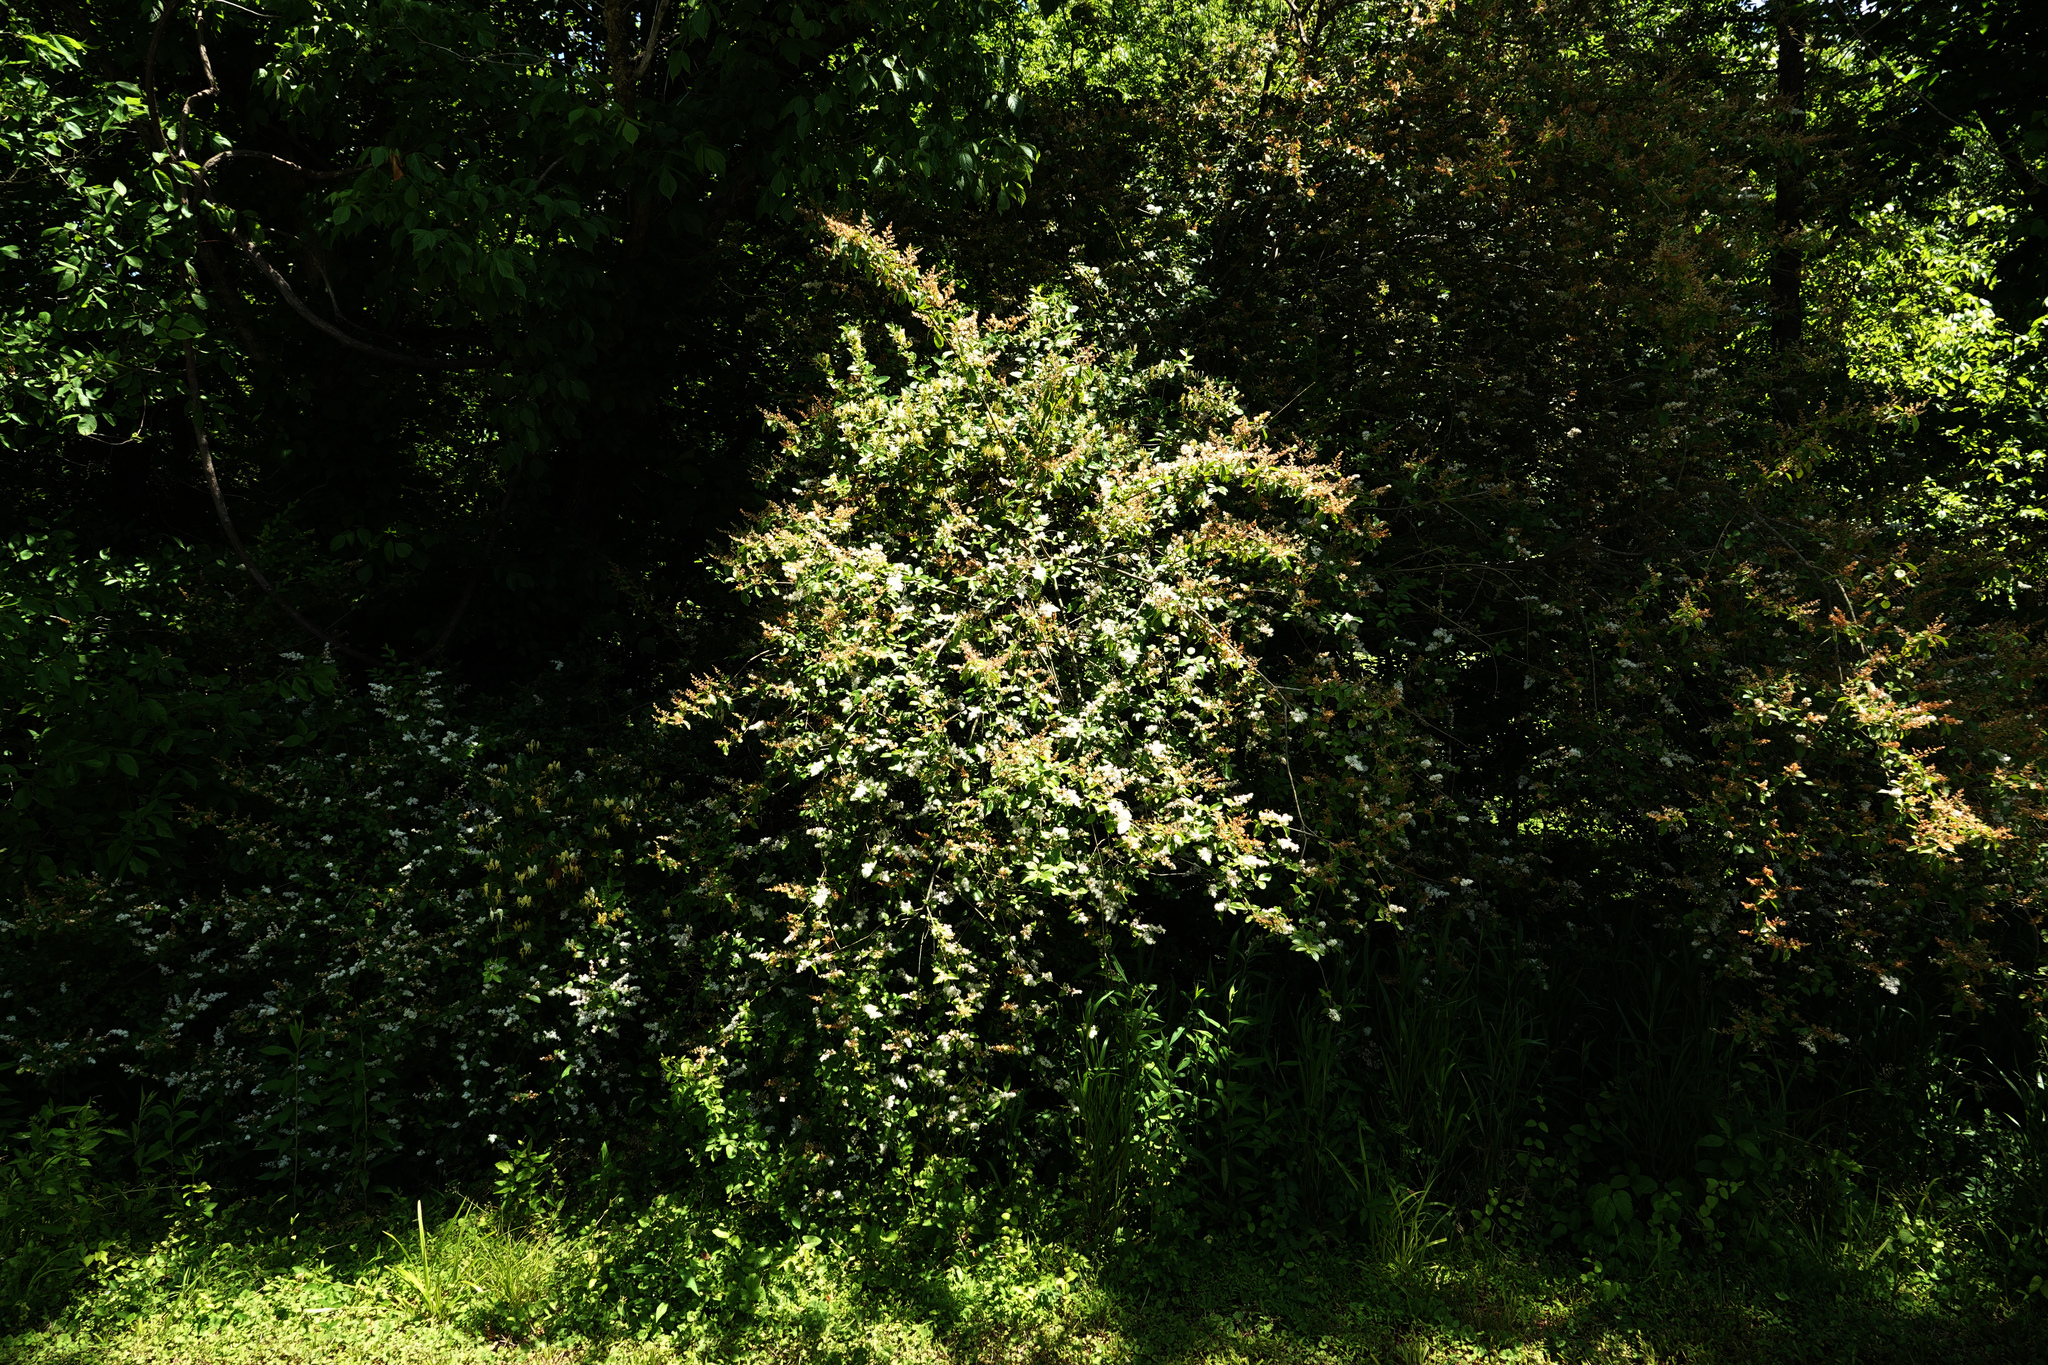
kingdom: Plantae
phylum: Tracheophyta
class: Magnoliopsida
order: Lamiales
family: Oleaceae
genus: Ligustrum
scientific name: Ligustrum sinense
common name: Chinese privet
